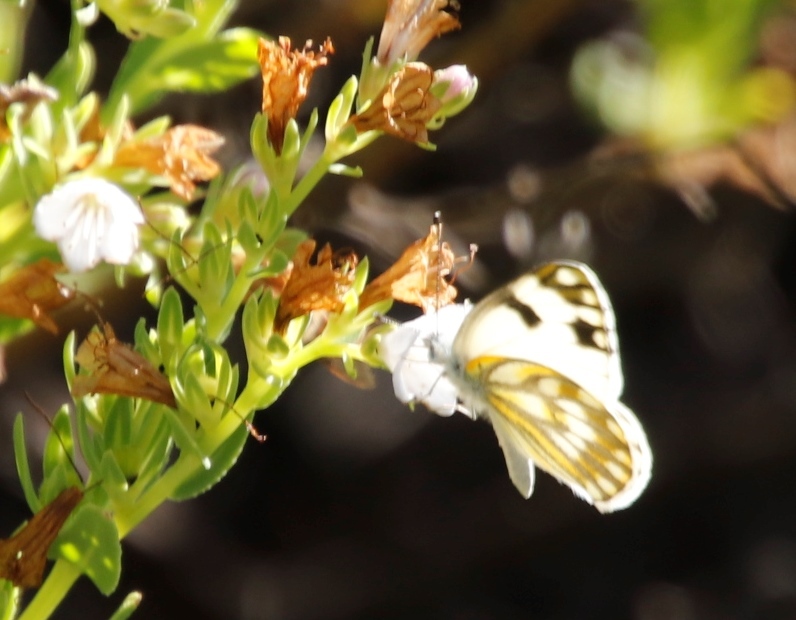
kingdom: Animalia
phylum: Arthropoda
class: Insecta
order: Lepidoptera
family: Pieridae
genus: Pontia
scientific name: Pontia helice
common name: Meadow white
